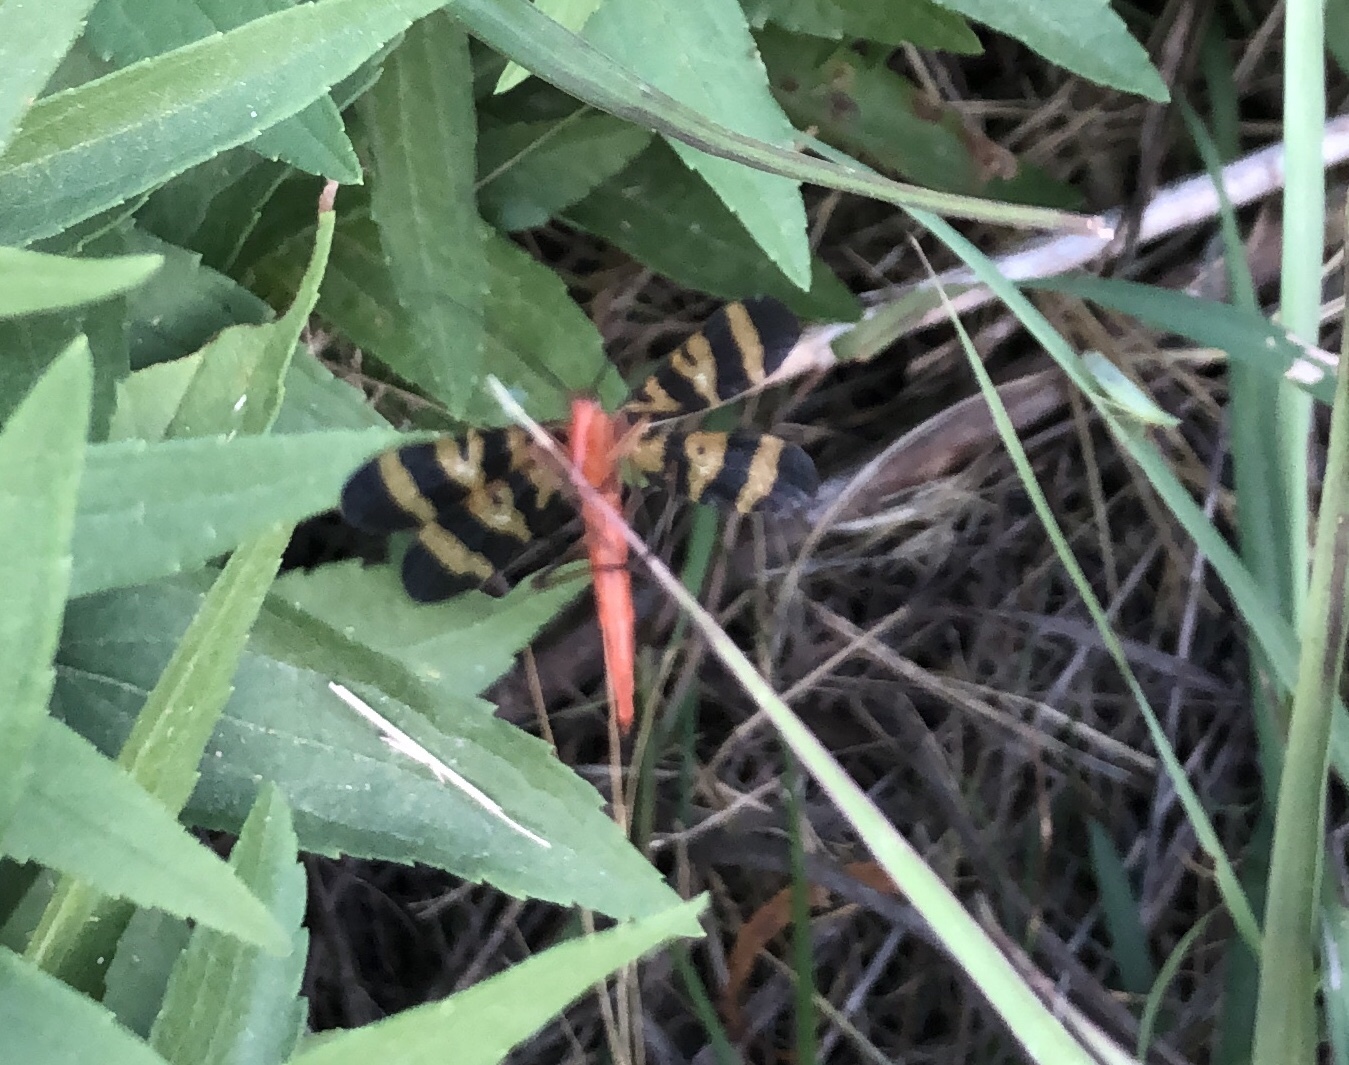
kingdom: Animalia
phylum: Arthropoda
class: Insecta
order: Mecoptera
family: Panorpidae
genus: Panorpa
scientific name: Panorpa nuptialis
